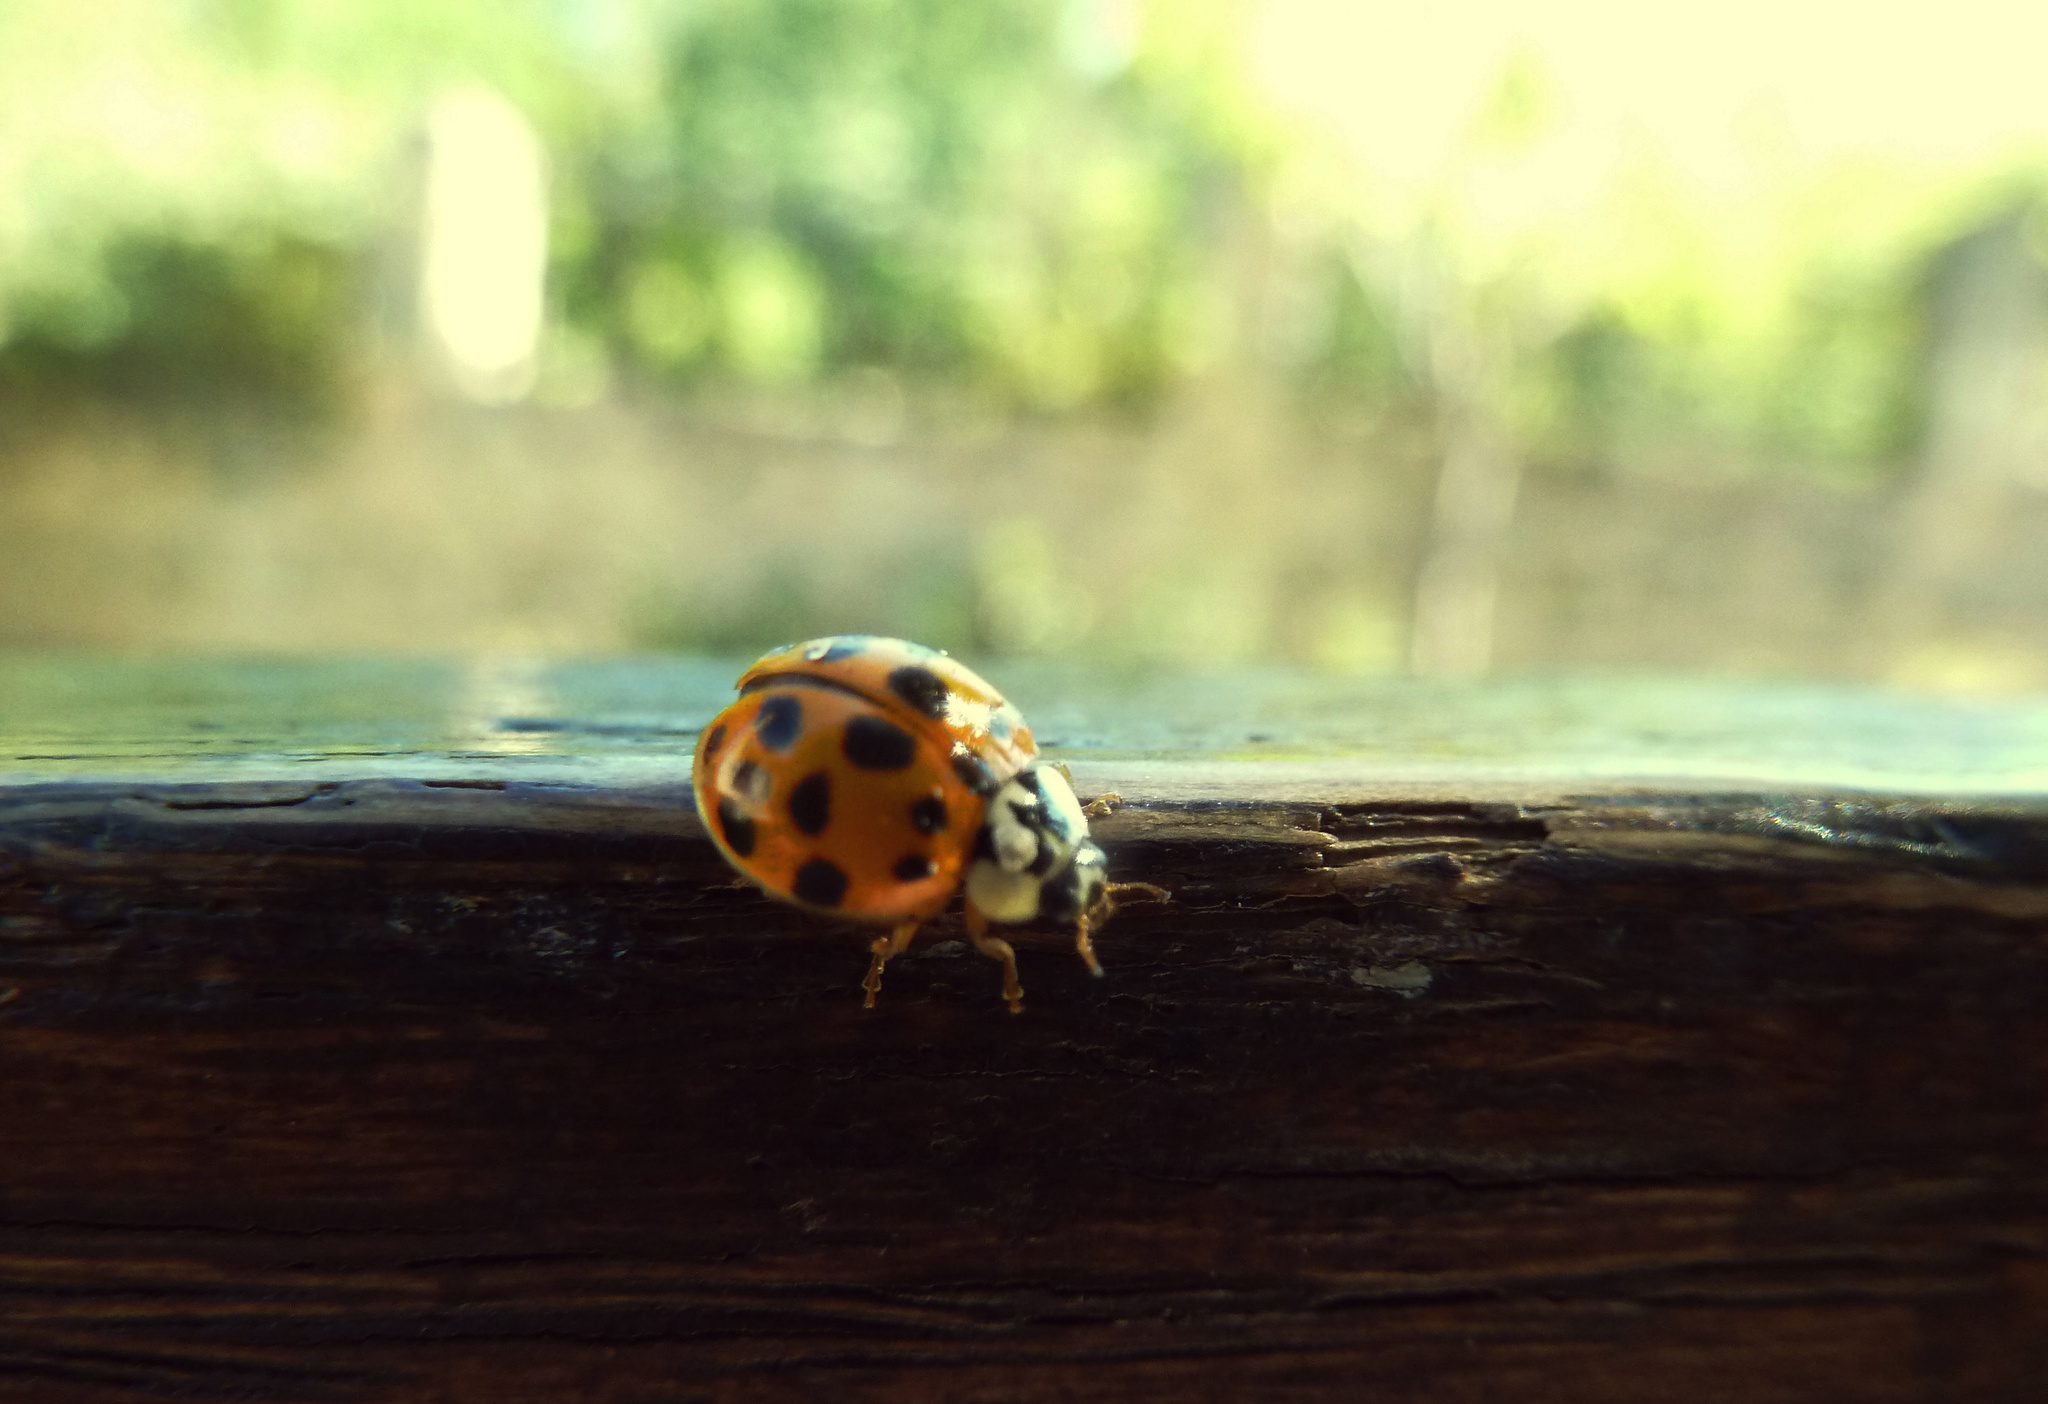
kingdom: Animalia
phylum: Arthropoda
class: Insecta
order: Coleoptera
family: Coccinellidae
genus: Harmonia
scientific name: Harmonia axyridis
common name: Harlequin ladybird
